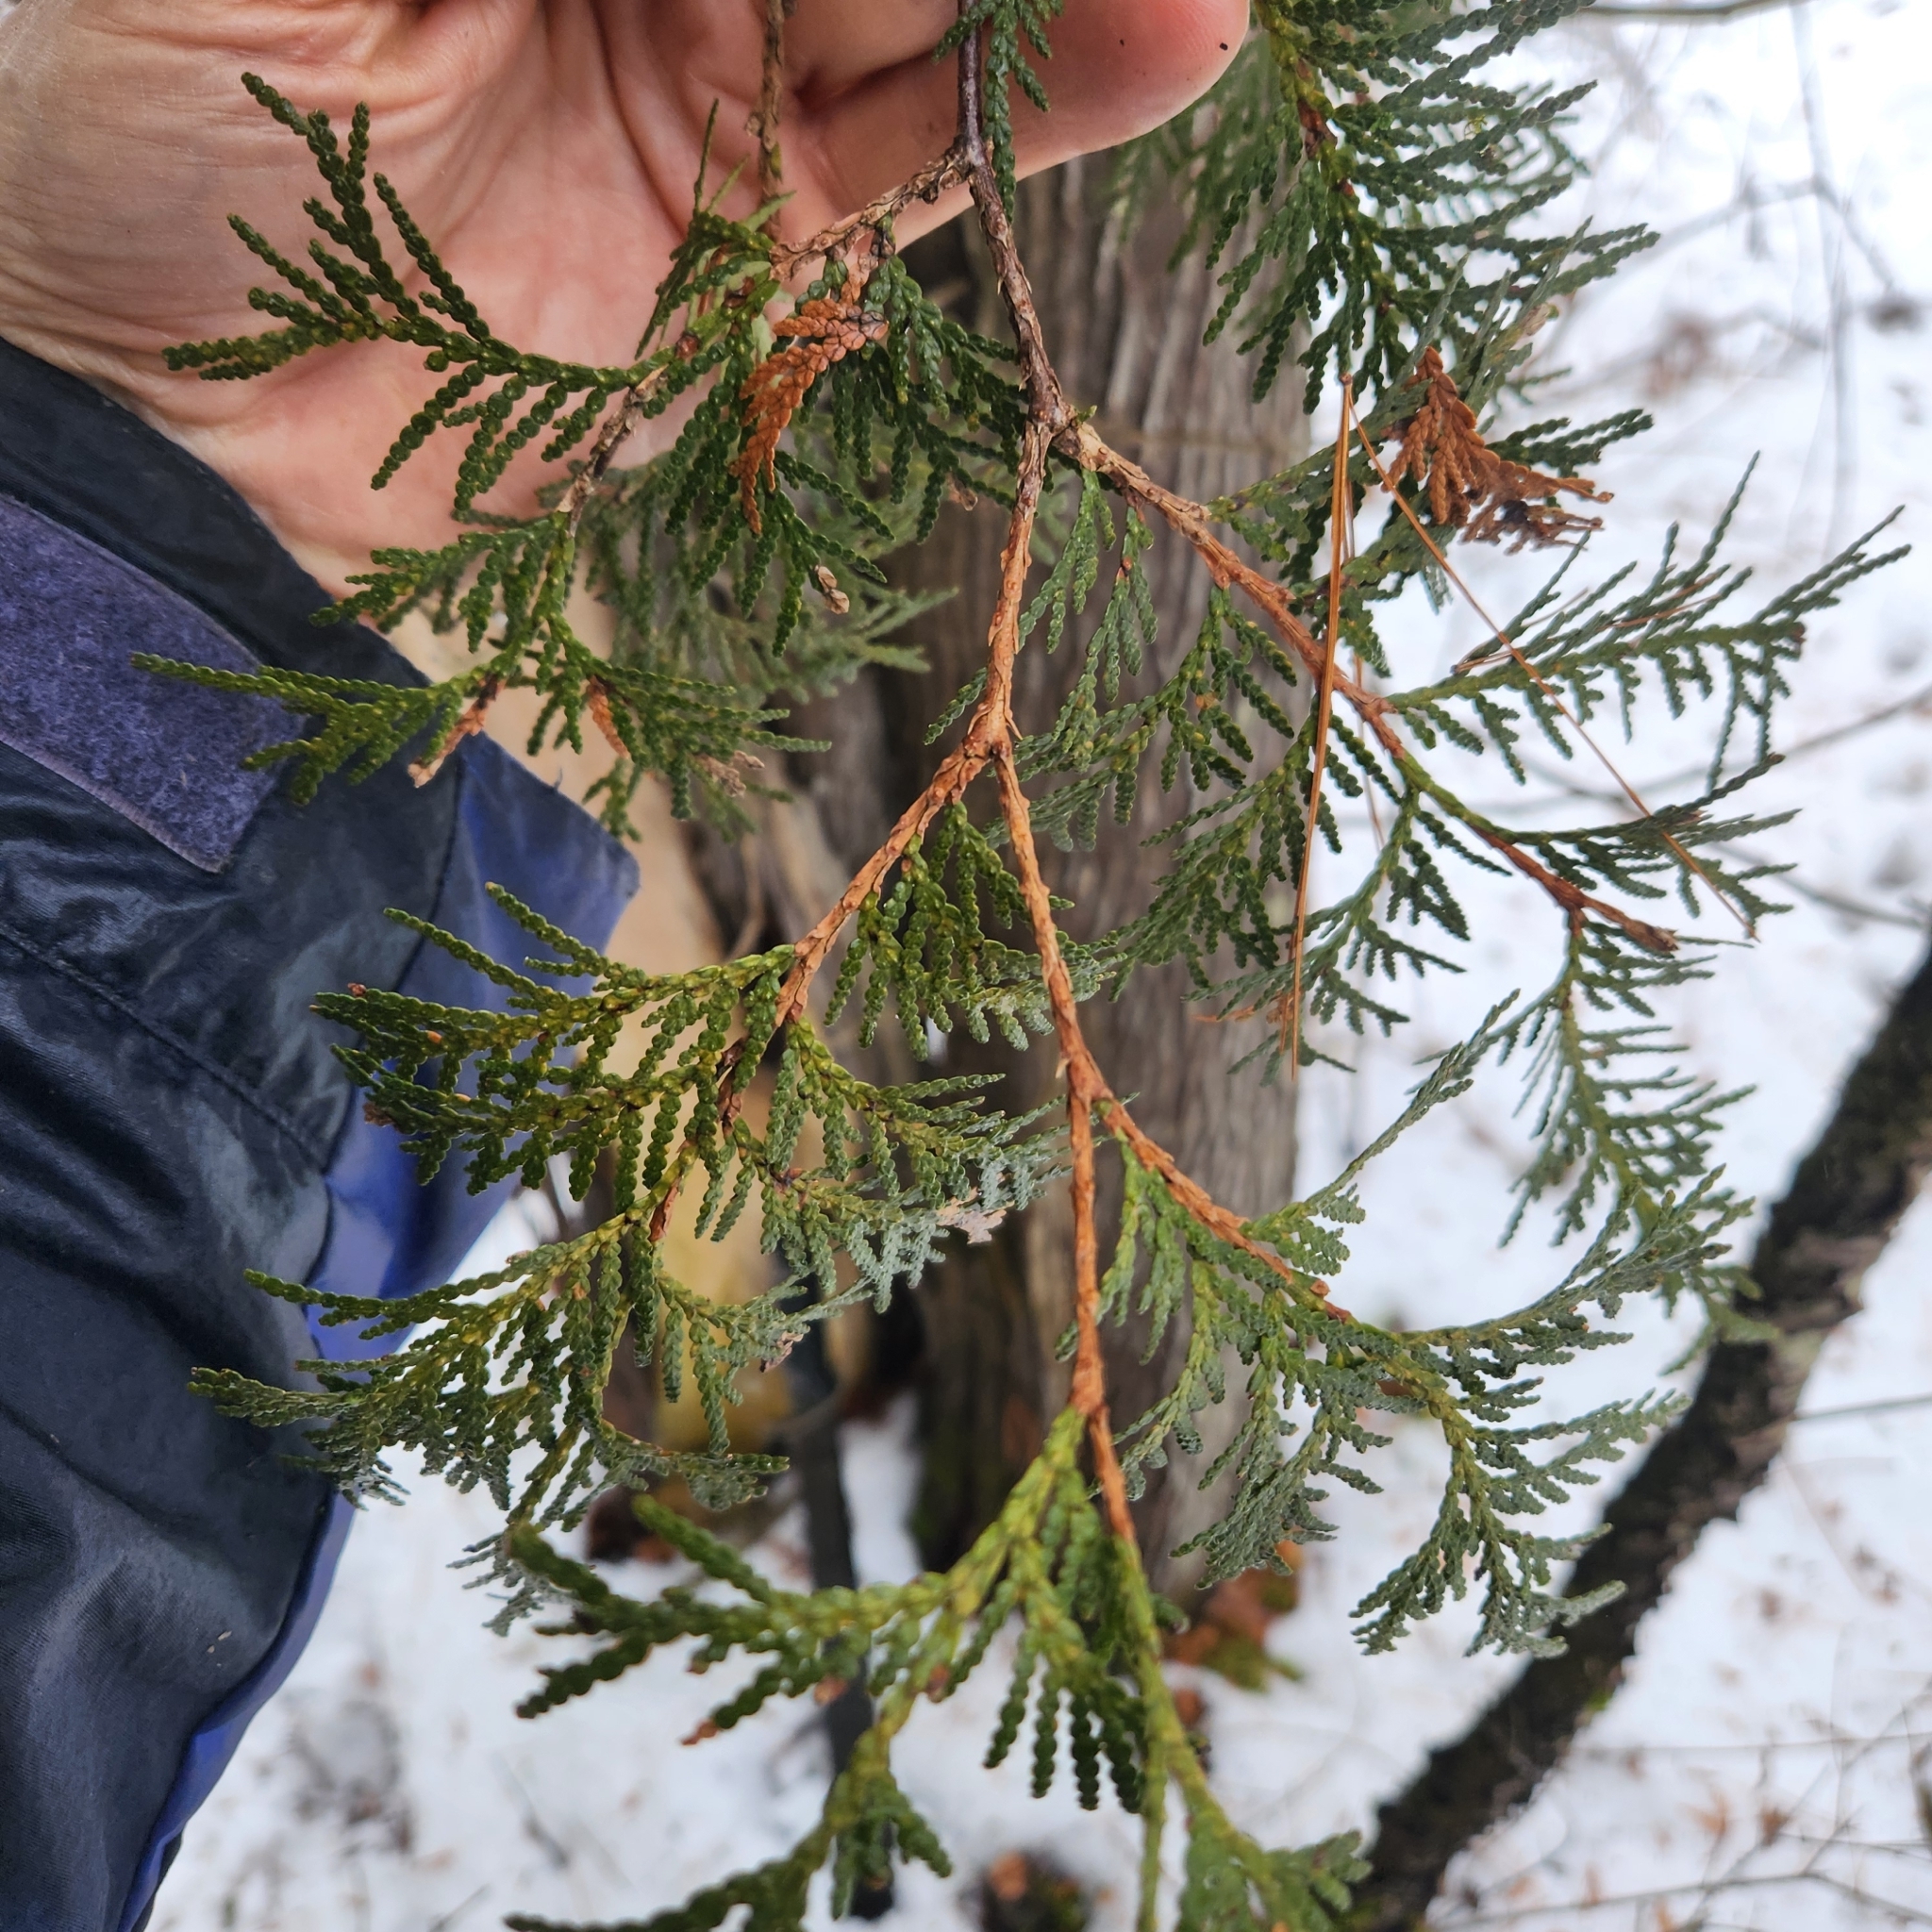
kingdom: Plantae
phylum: Tracheophyta
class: Pinopsida
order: Pinales
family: Cupressaceae
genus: Thuja
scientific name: Thuja occidentalis
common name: Northern white-cedar
